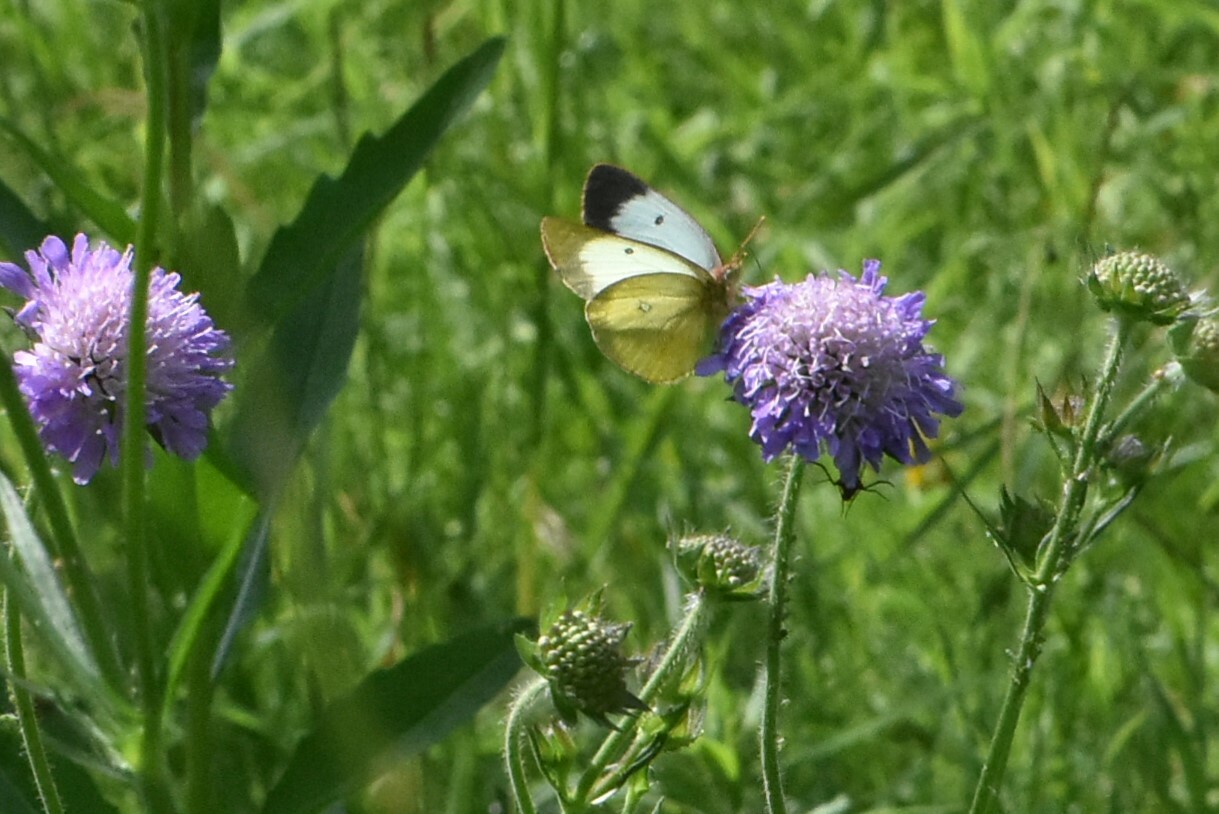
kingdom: Animalia
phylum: Arthropoda
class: Insecta
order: Lepidoptera
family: Pieridae
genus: Colias
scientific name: Colias palaeno
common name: Moorland clouded yellow
